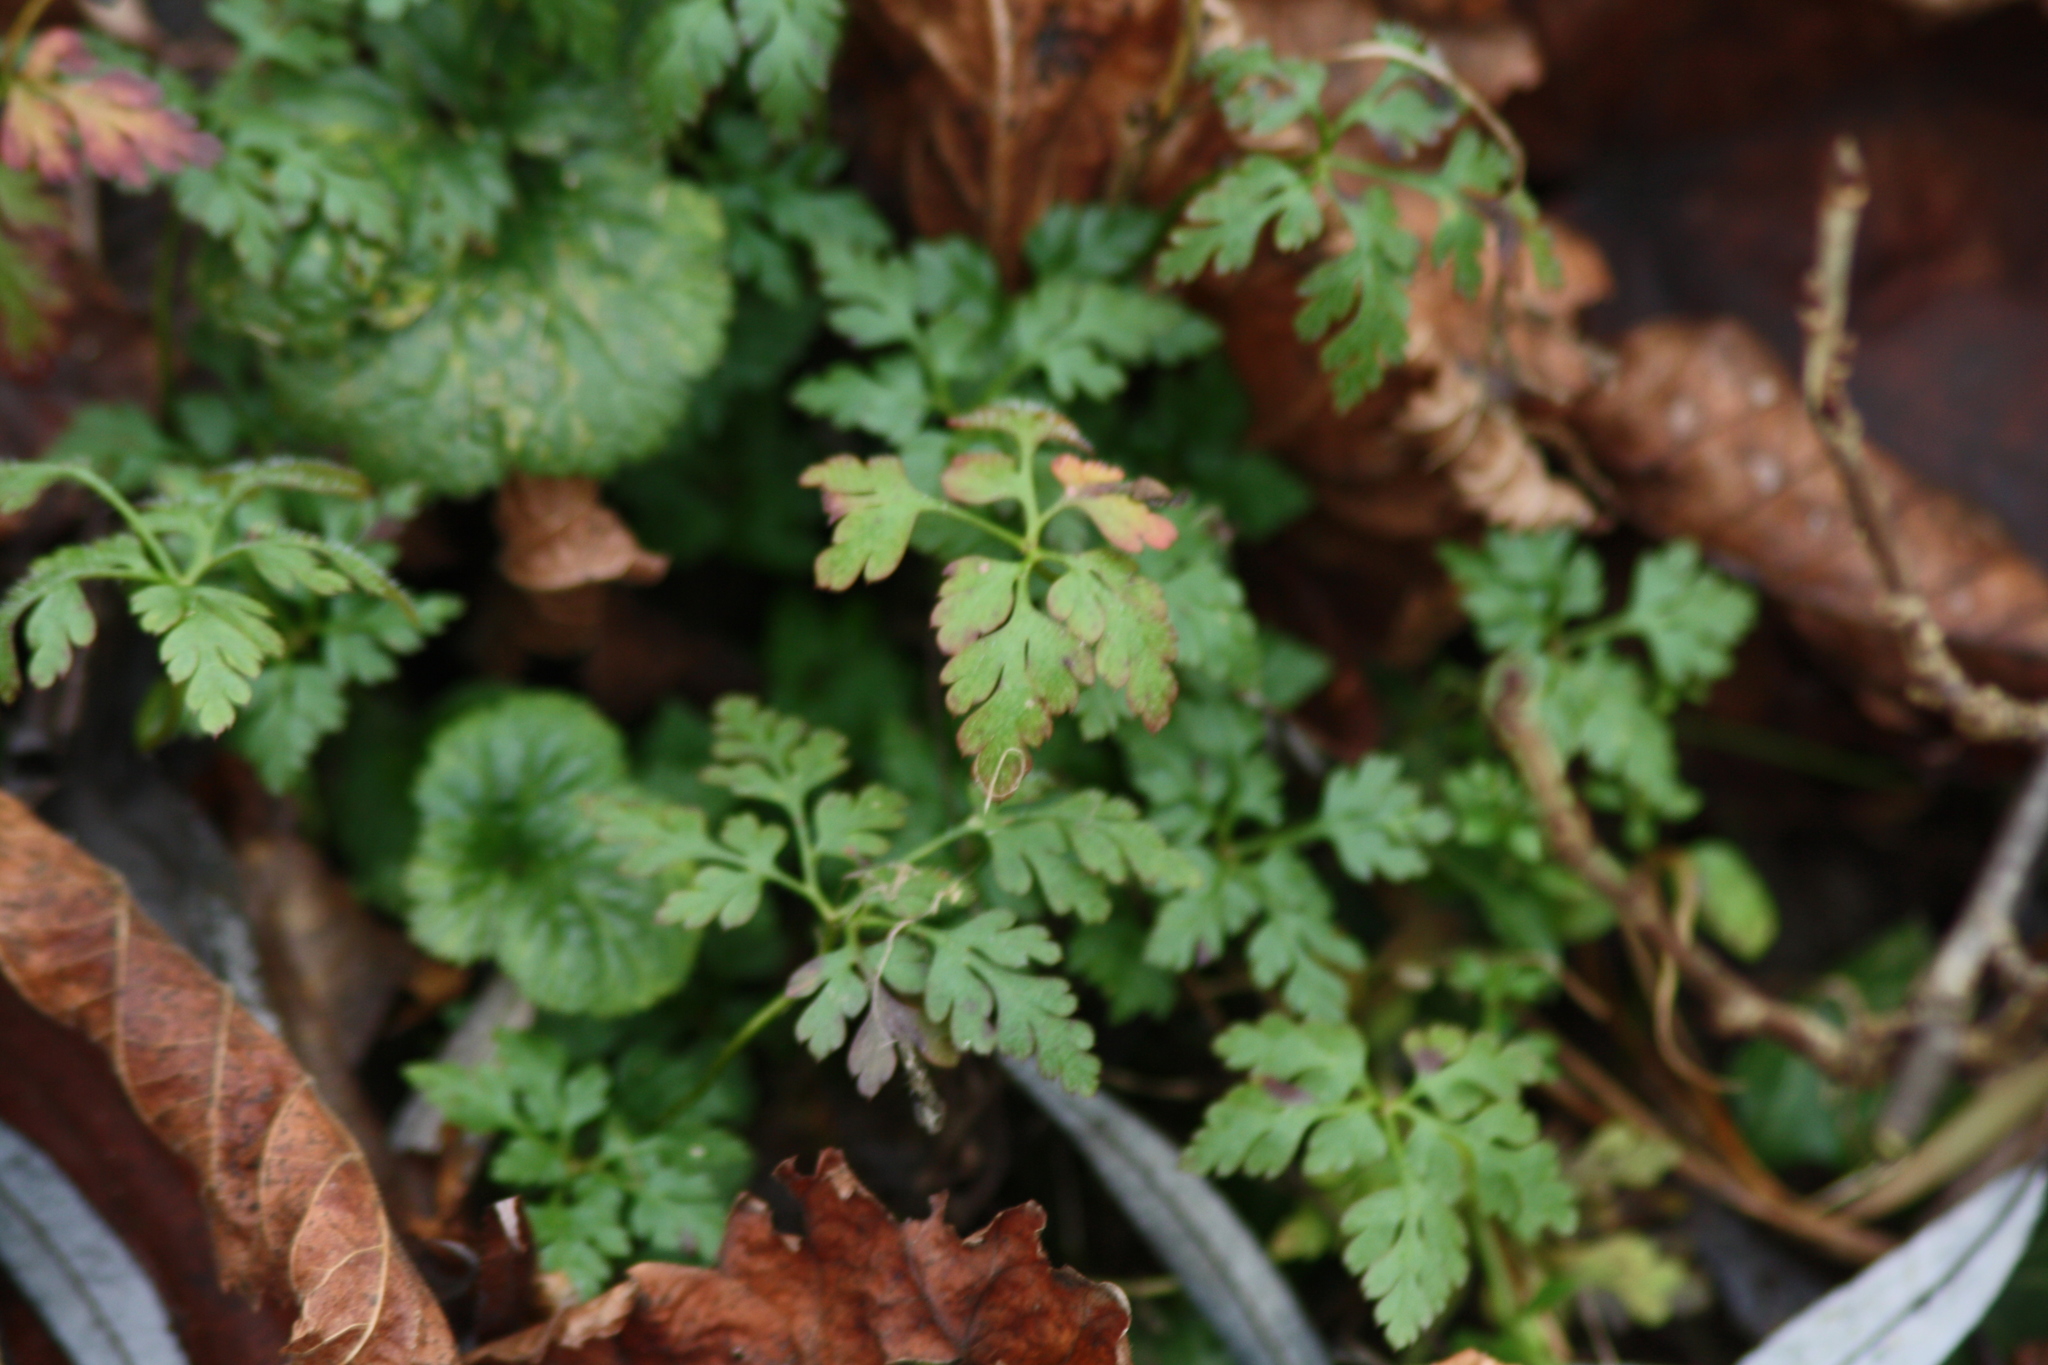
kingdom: Plantae
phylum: Tracheophyta
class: Magnoliopsida
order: Geraniales
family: Geraniaceae
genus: Geranium
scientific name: Geranium robertianum
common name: Herb-robert
